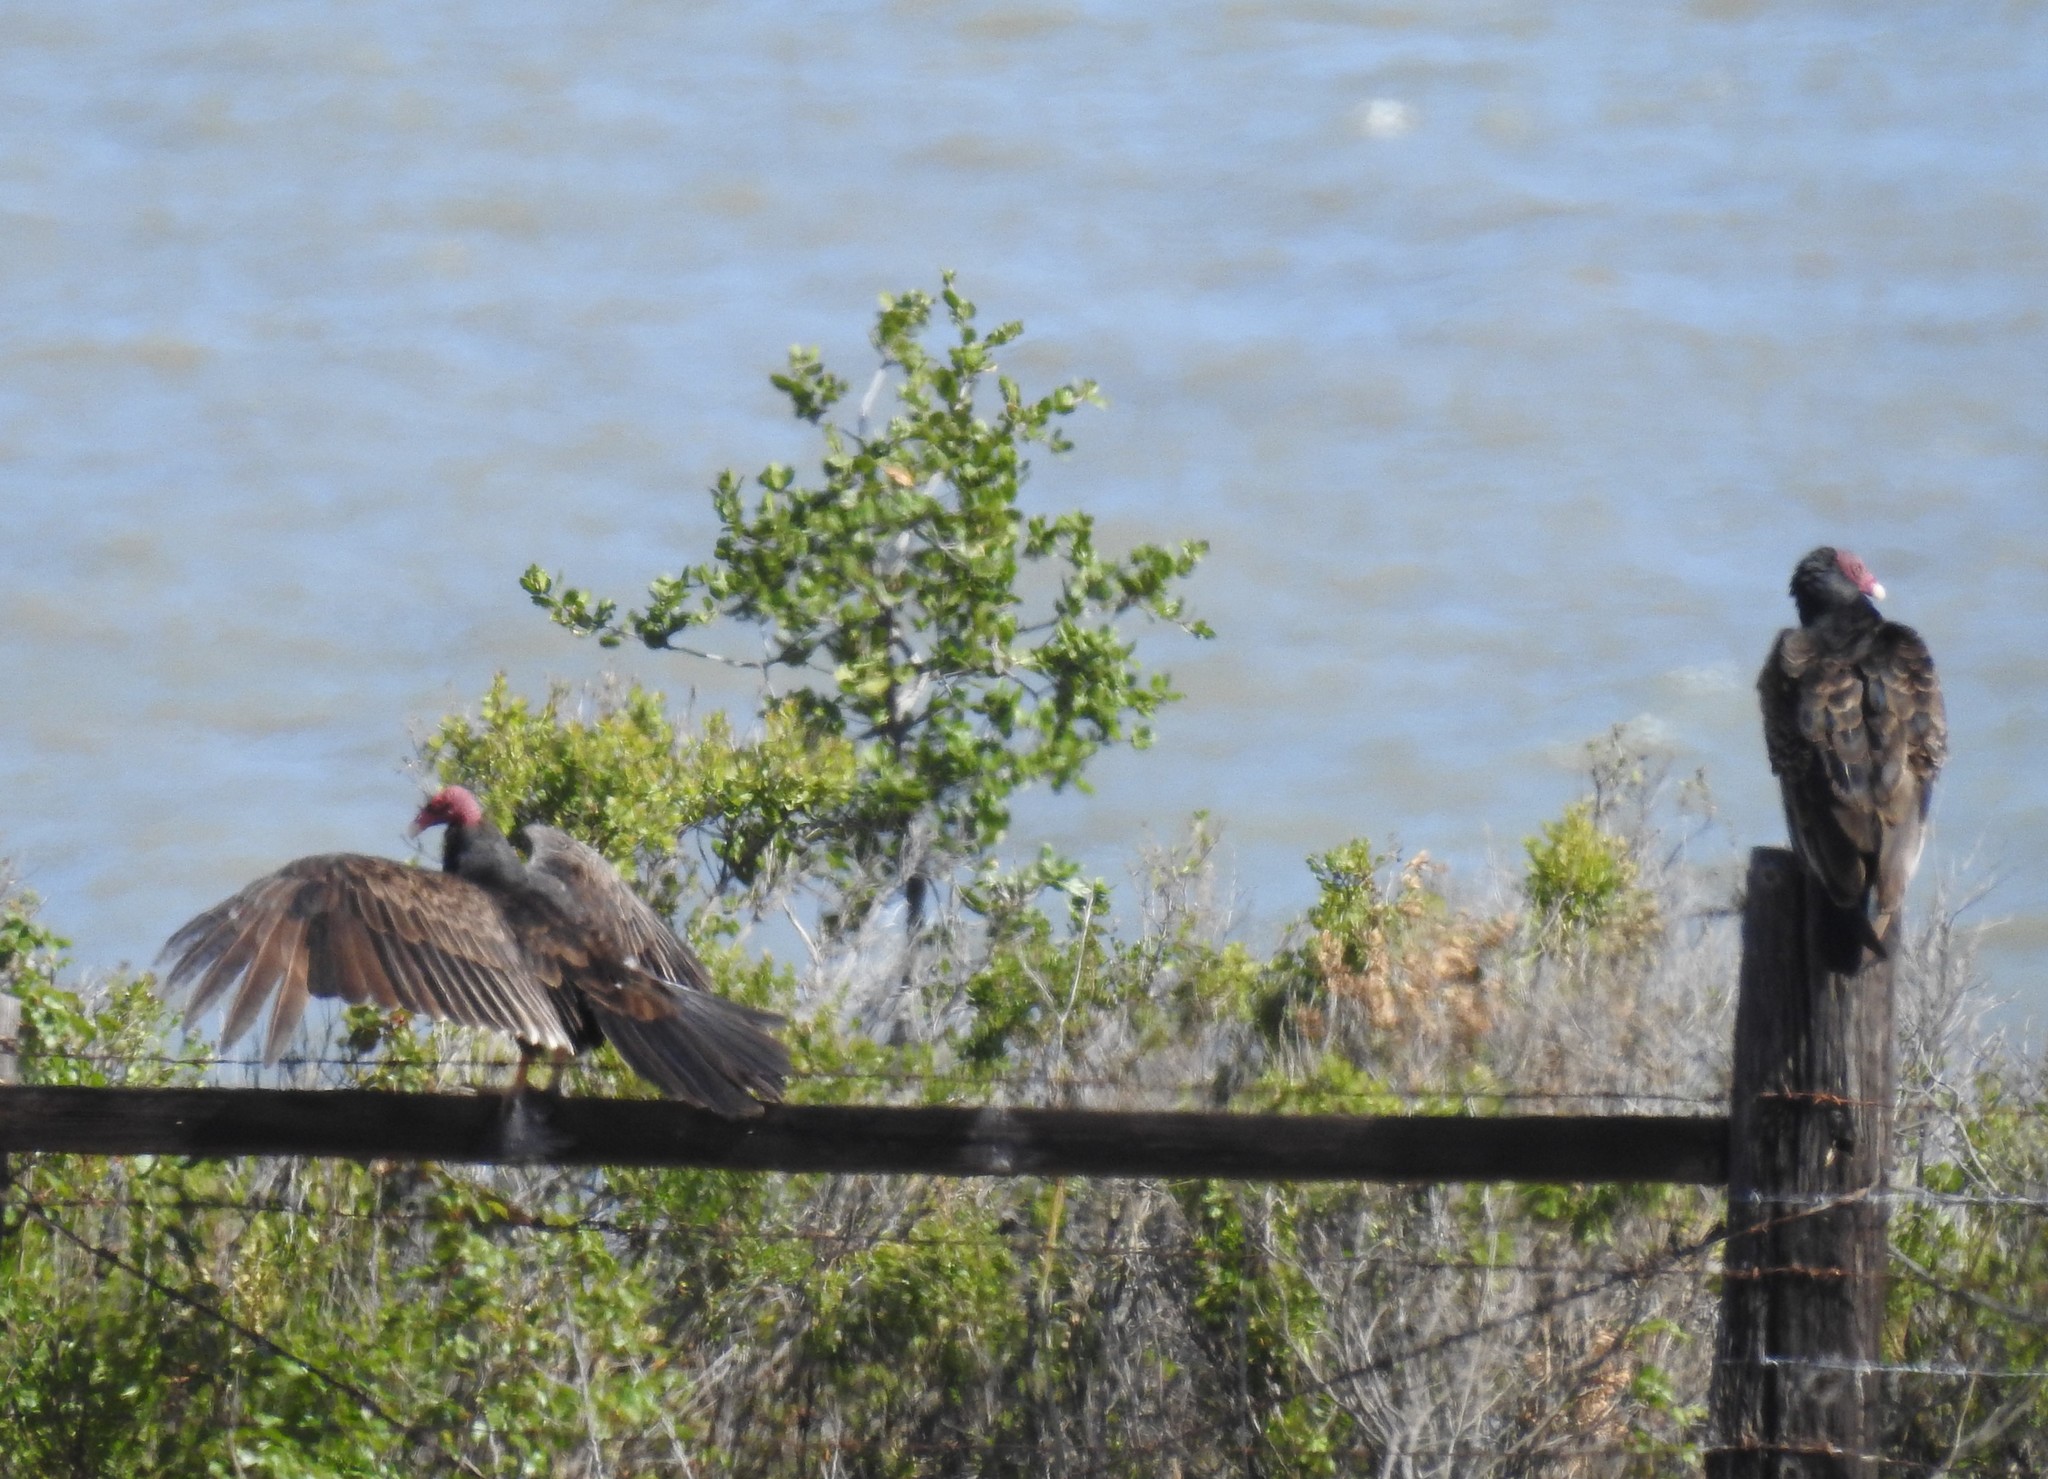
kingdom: Animalia
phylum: Chordata
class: Aves
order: Accipitriformes
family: Cathartidae
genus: Cathartes
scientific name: Cathartes aura
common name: Turkey vulture
